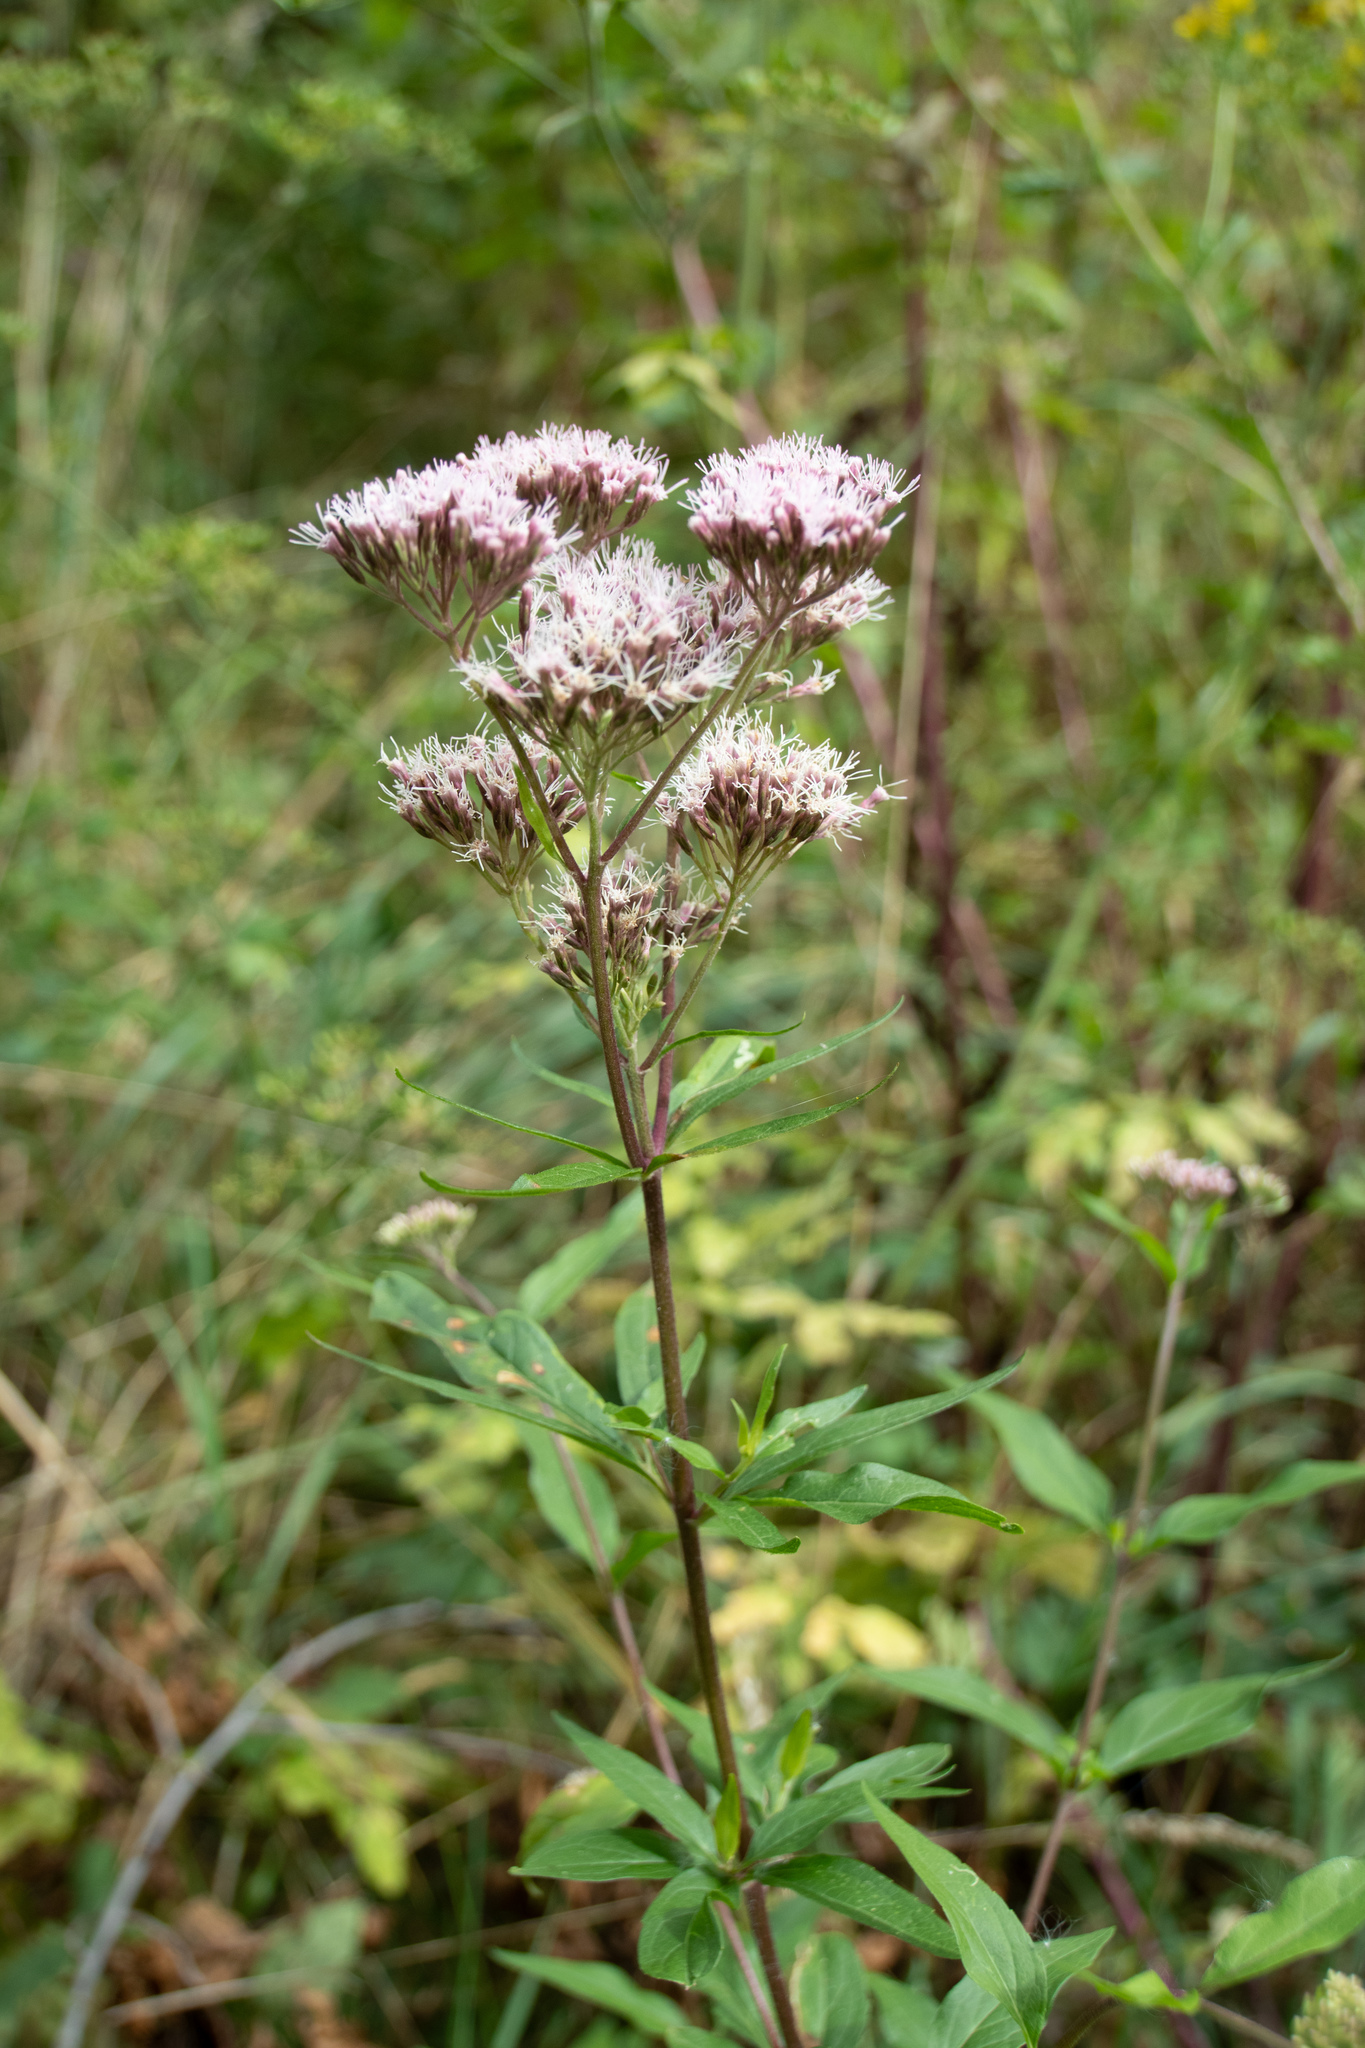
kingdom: Plantae
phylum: Tracheophyta
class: Magnoliopsida
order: Asterales
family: Asteraceae
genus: Eupatorium
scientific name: Eupatorium cannabinum
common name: Hemp-agrimony
